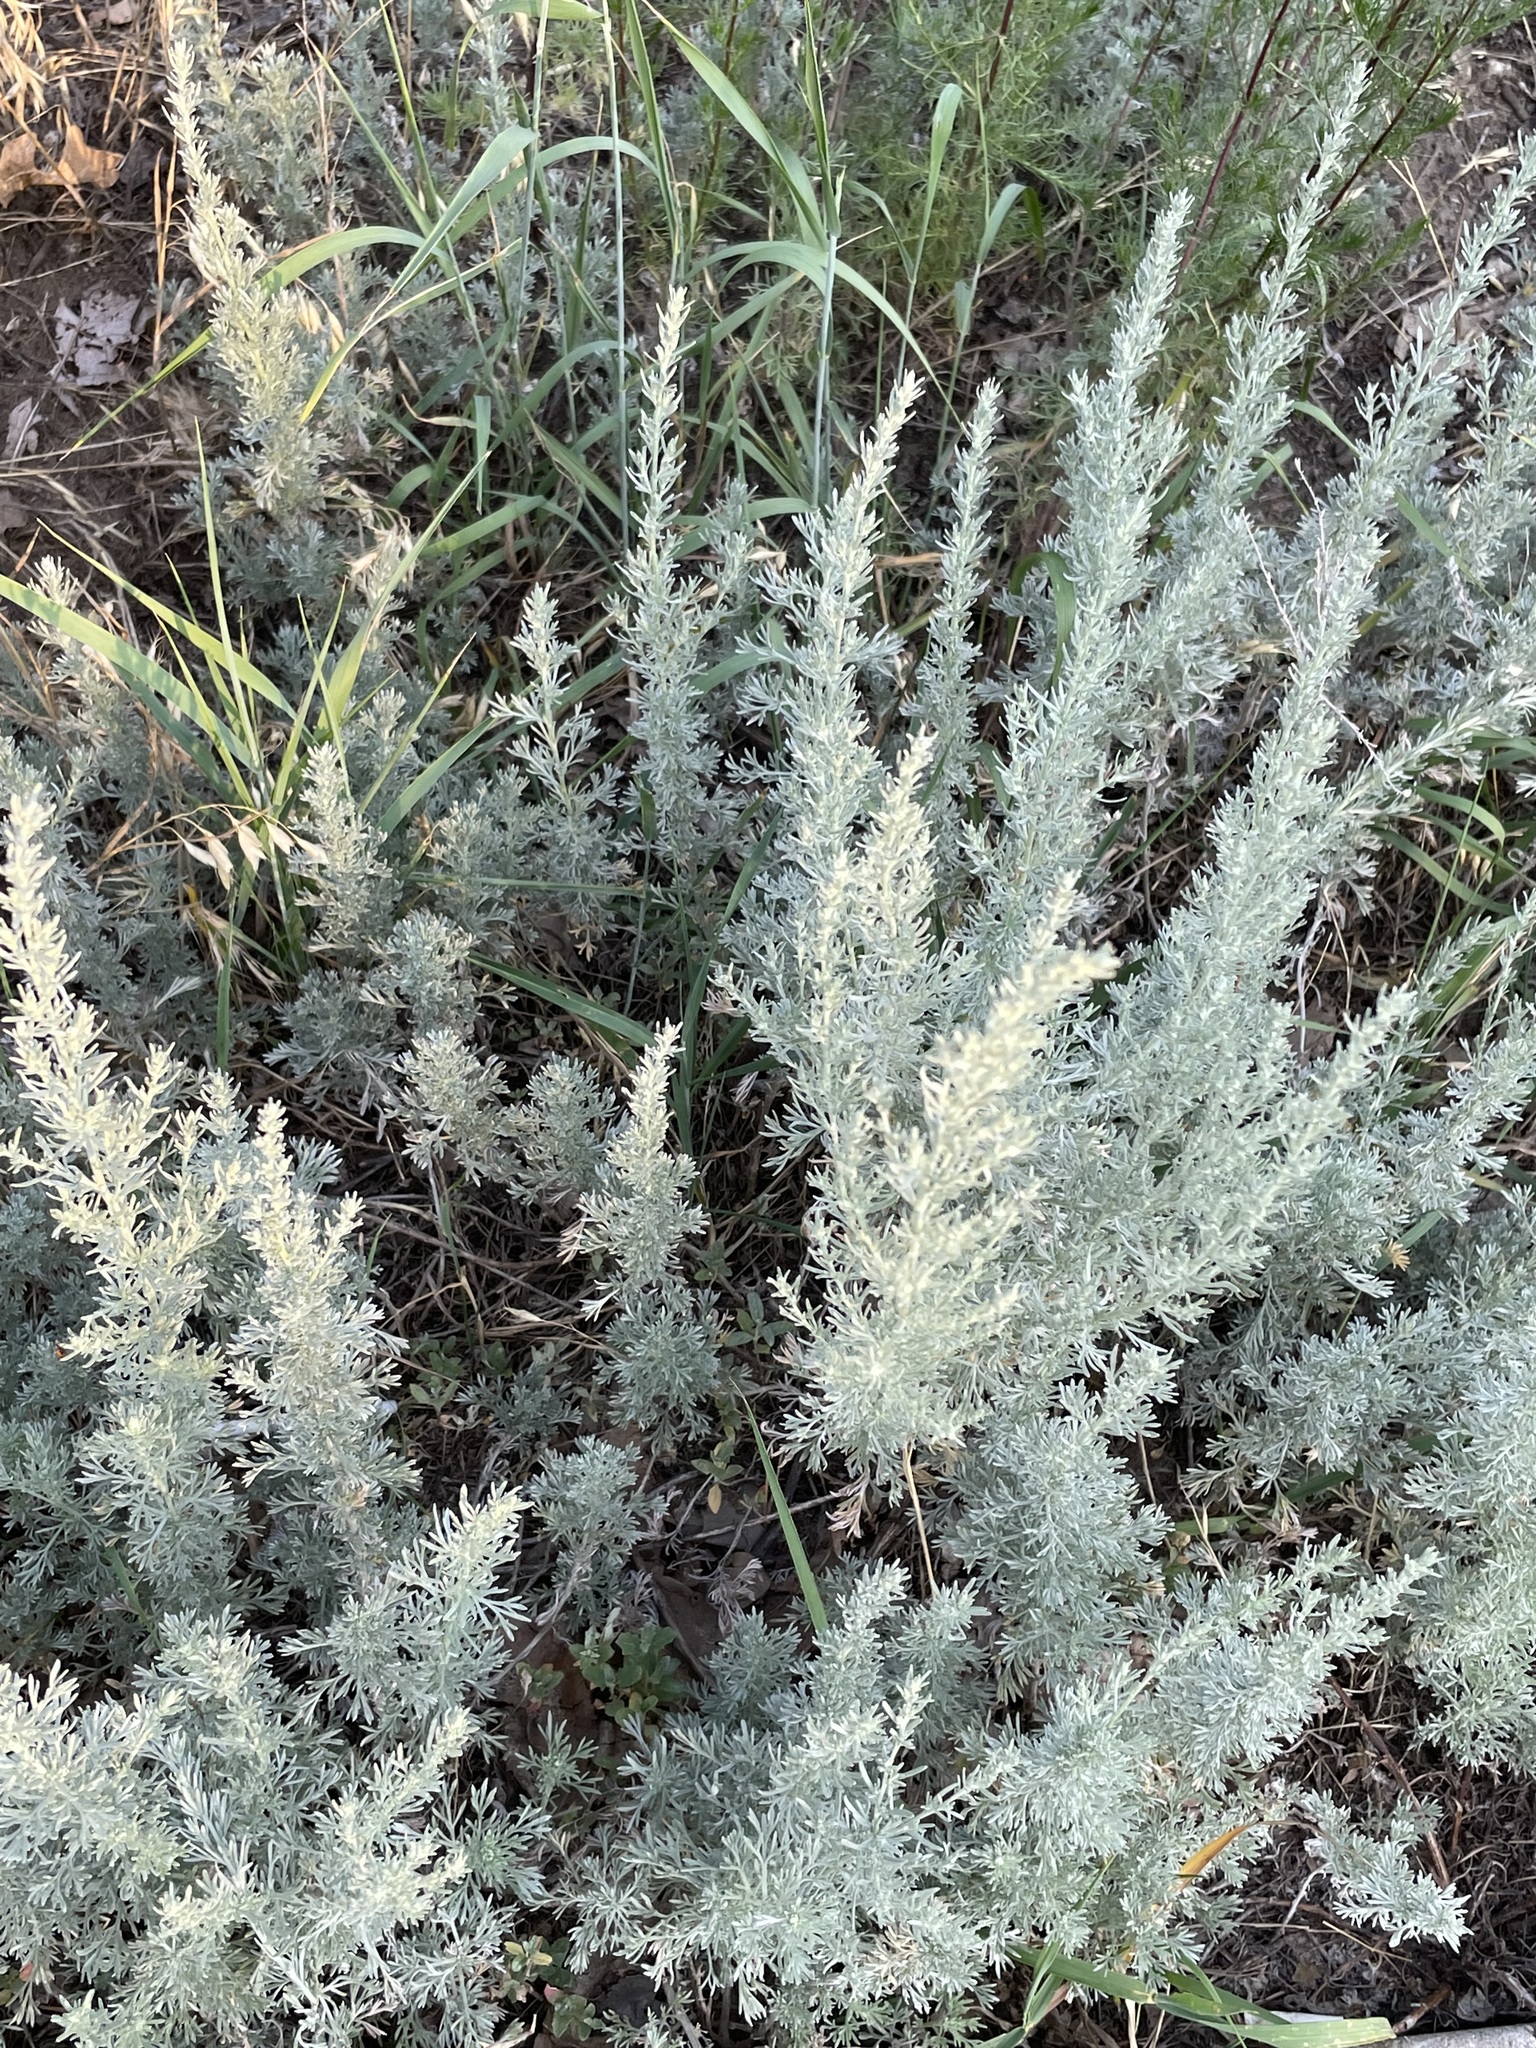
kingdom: Plantae
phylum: Tracheophyta
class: Magnoliopsida
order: Asterales
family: Asteraceae
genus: Artemisia
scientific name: Artemisia austriaca
